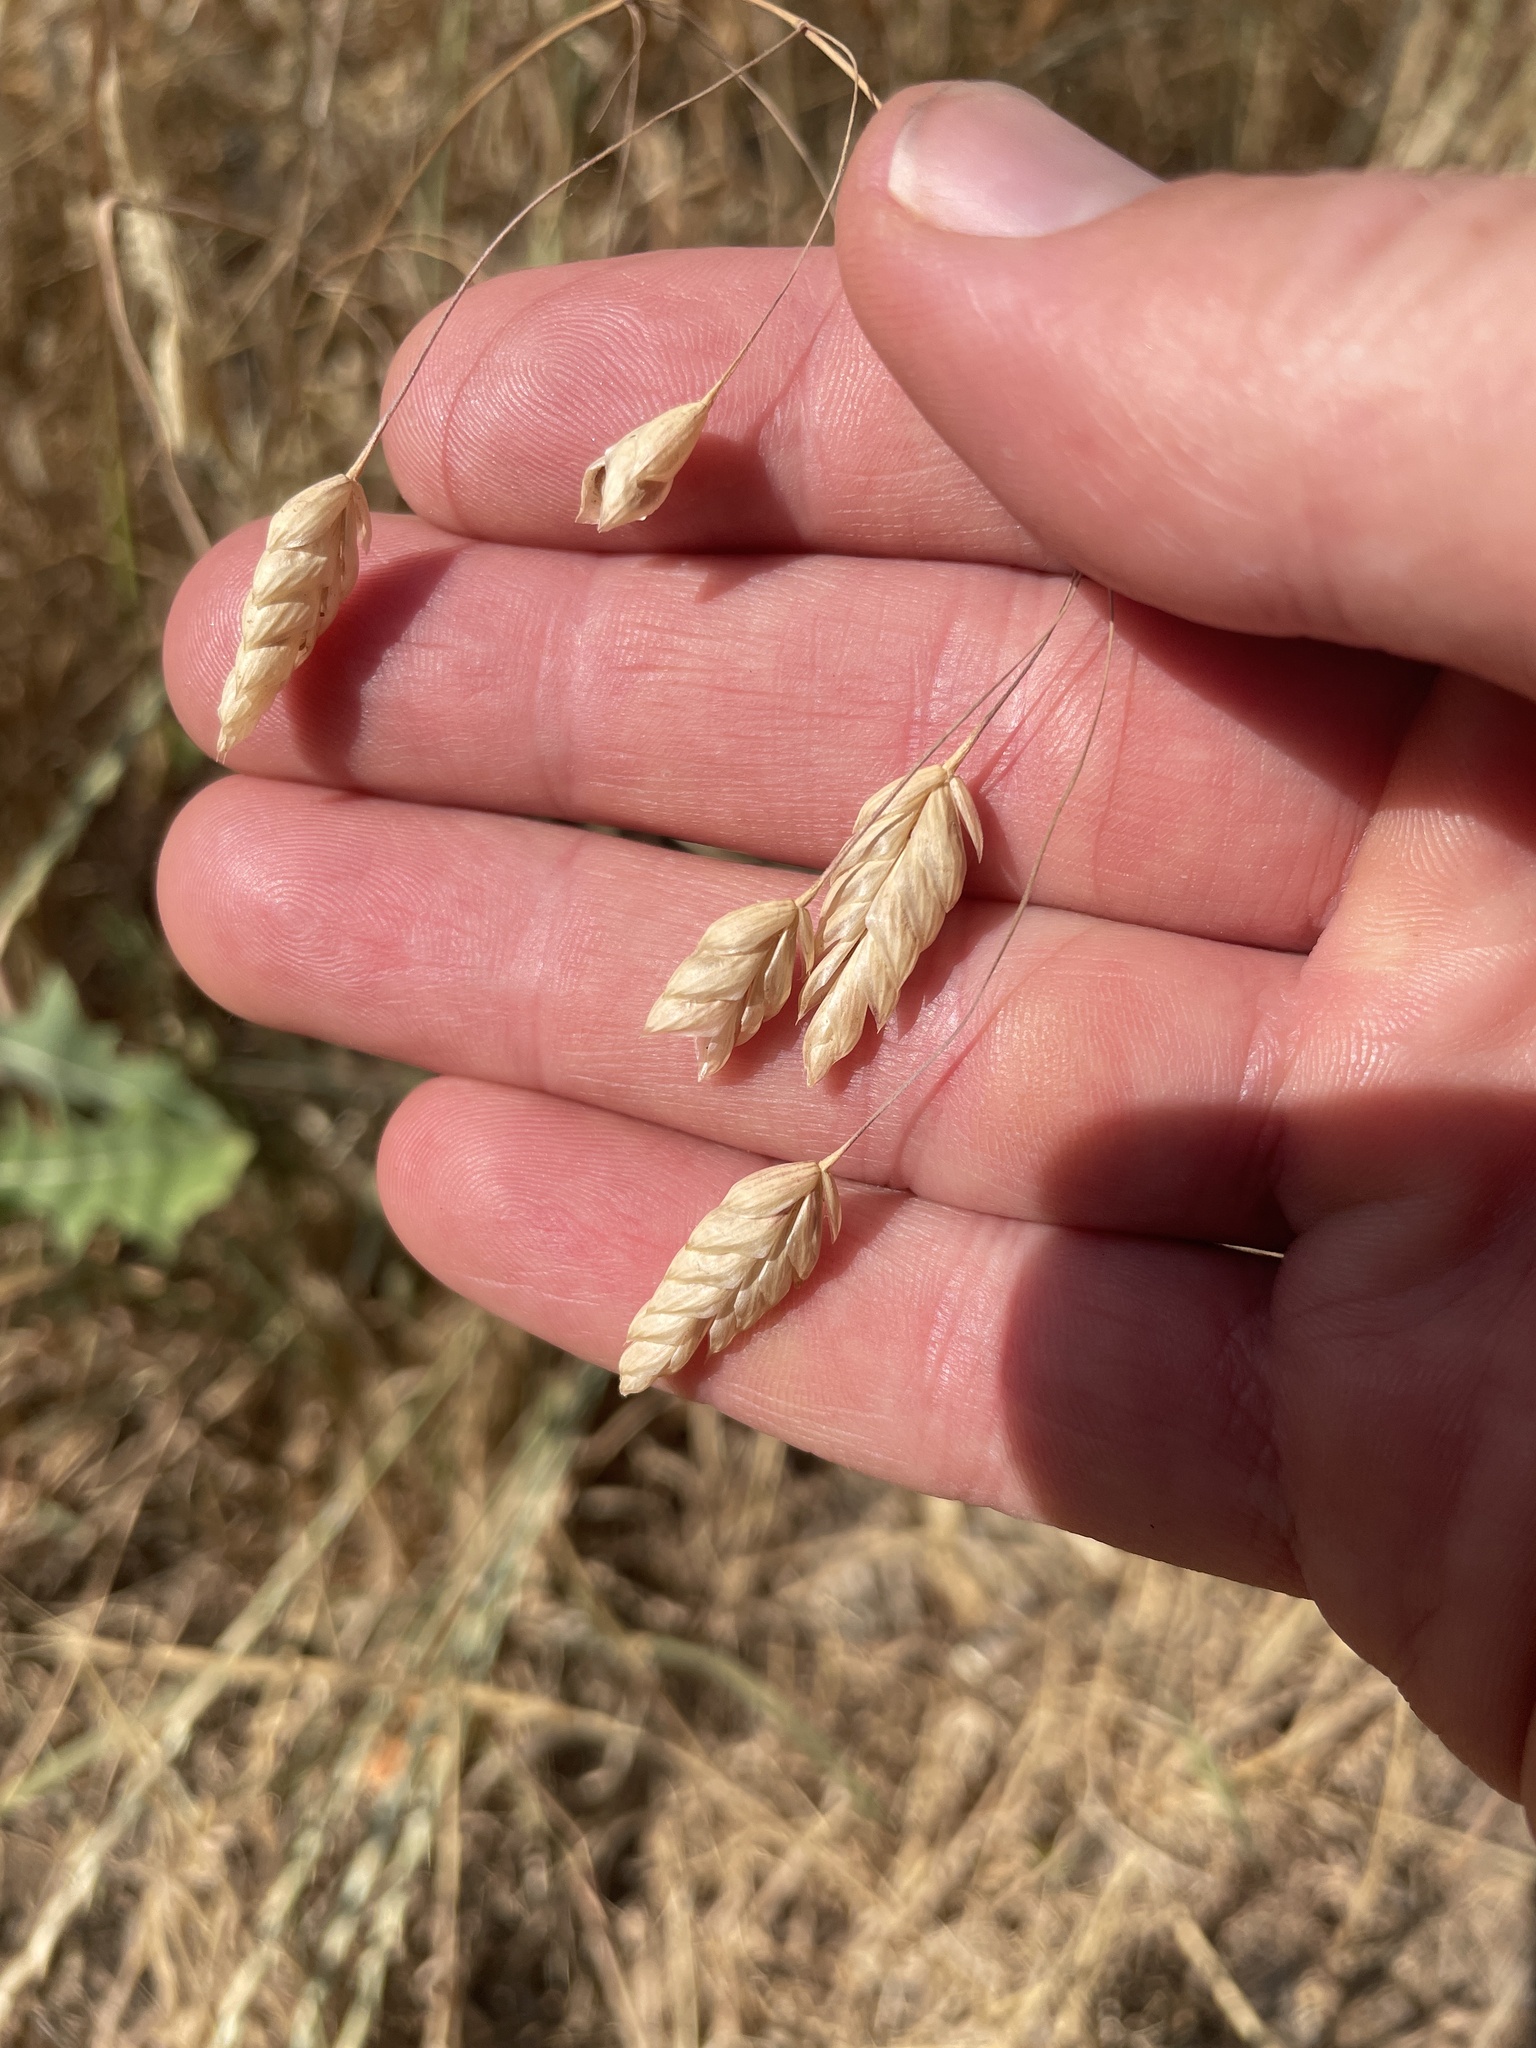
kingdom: Plantae
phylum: Tracheophyta
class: Liliopsida
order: Poales
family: Poaceae
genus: Bromus
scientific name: Bromus briziformis
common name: Rattlesnake brome
